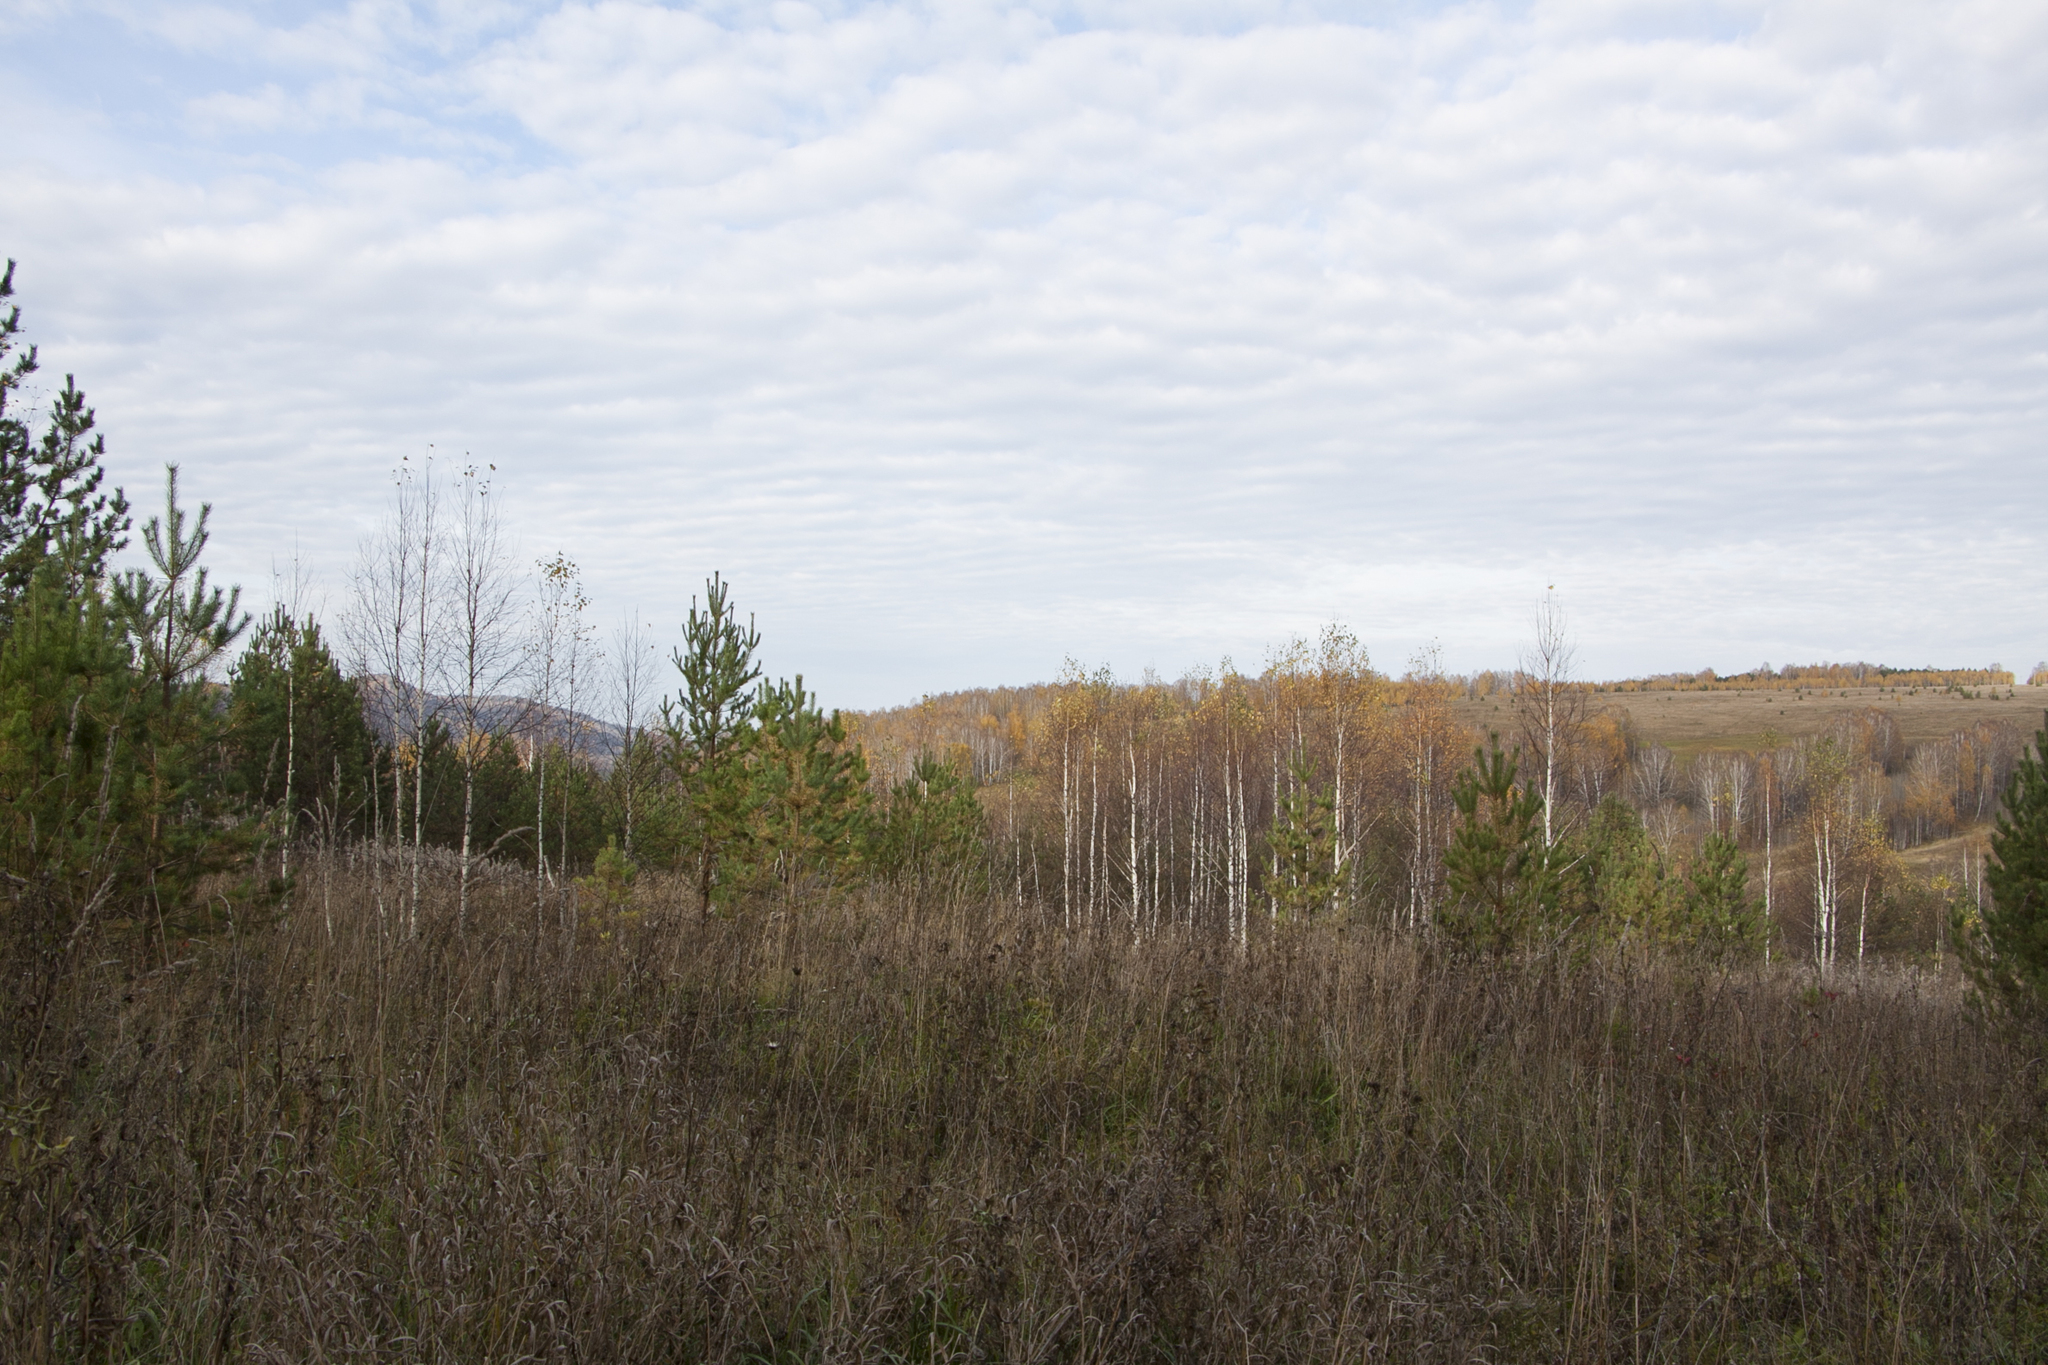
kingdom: Plantae
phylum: Tracheophyta
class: Magnoliopsida
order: Fagales
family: Betulaceae
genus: Betula
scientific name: Betula pendula
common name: Silver birch
